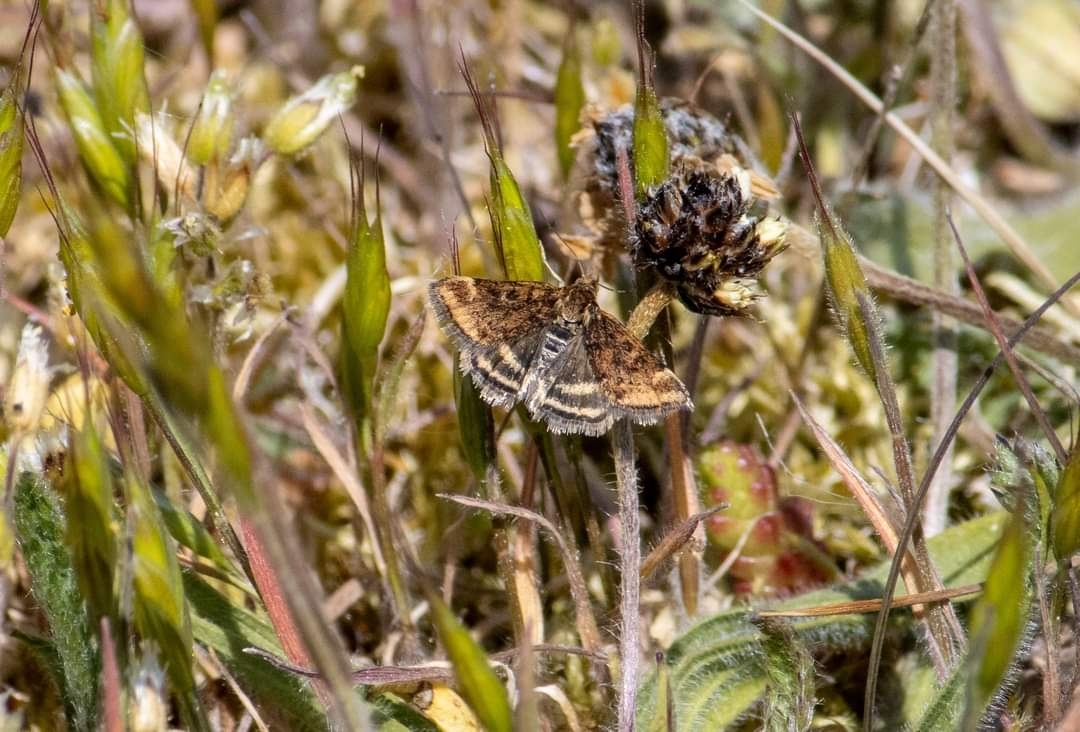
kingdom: Animalia
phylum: Arthropoda
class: Insecta
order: Lepidoptera
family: Crambidae
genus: Pyrausta
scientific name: Pyrausta despicata
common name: Straw-barred pearl
